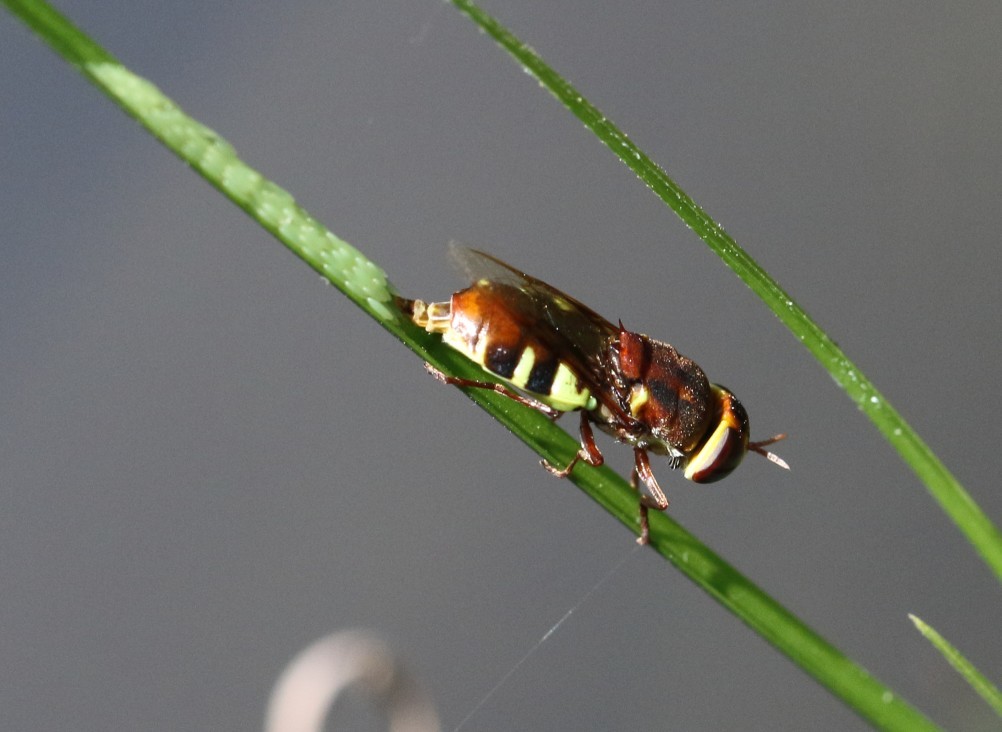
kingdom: Animalia
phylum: Arthropoda
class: Insecta
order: Diptera
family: Stratiomyidae
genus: Odontomyia
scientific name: Odontomyia ophrydifera
